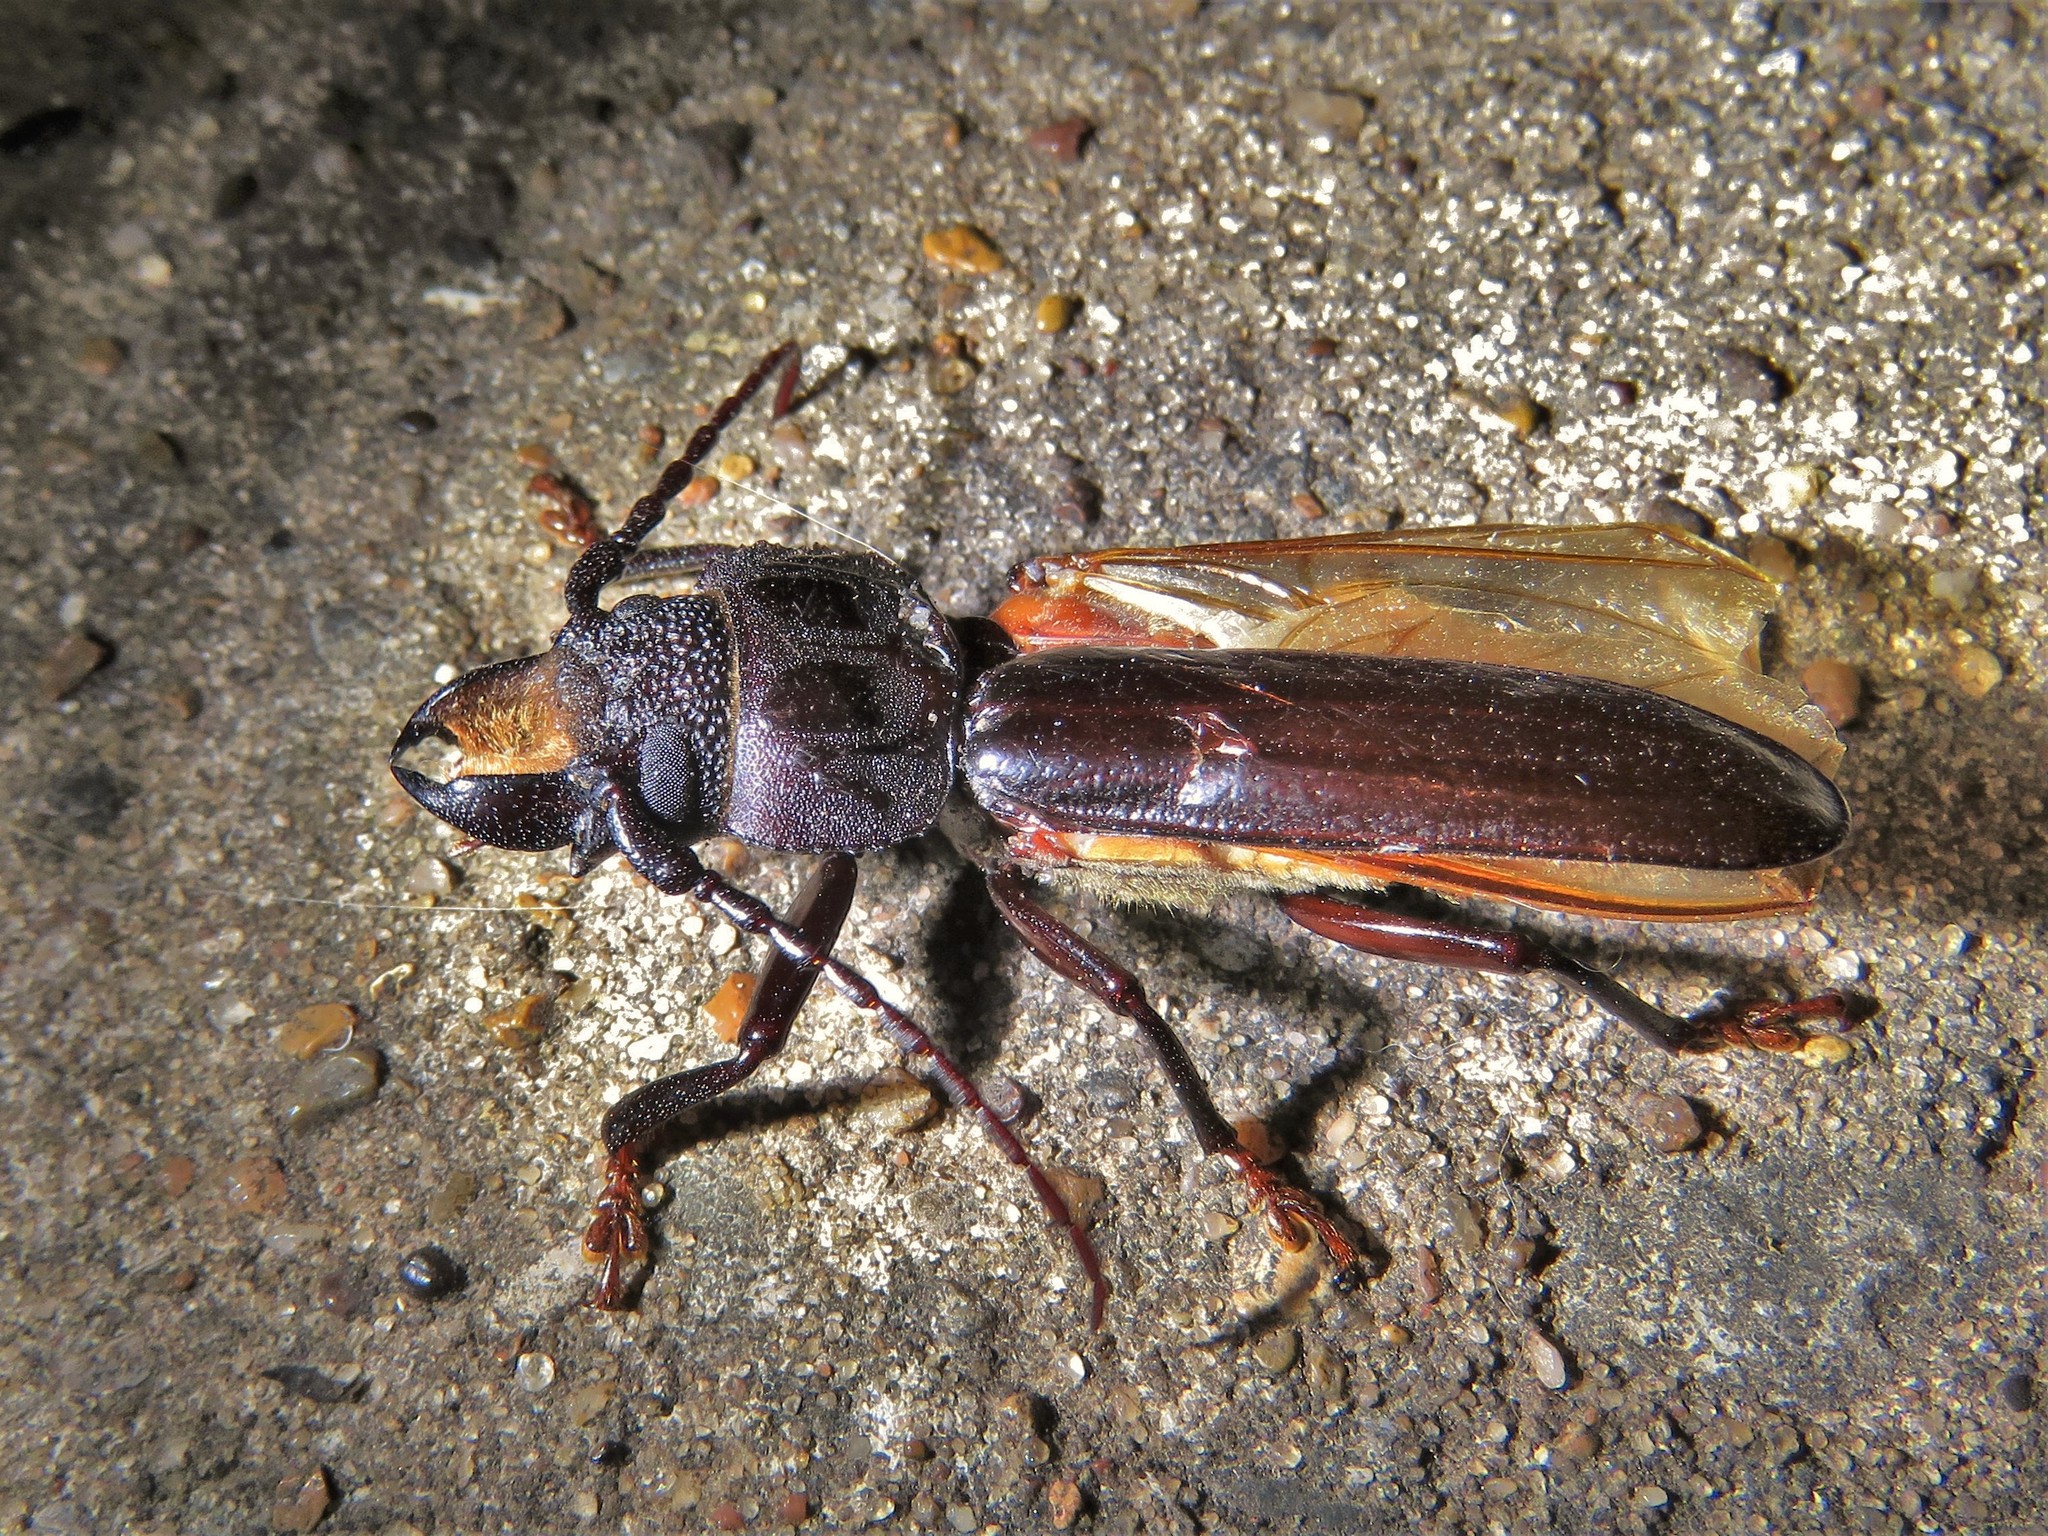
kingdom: Animalia
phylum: Arthropoda
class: Insecta
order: Coleoptera
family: Cerambycidae
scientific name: Cerambycidae
